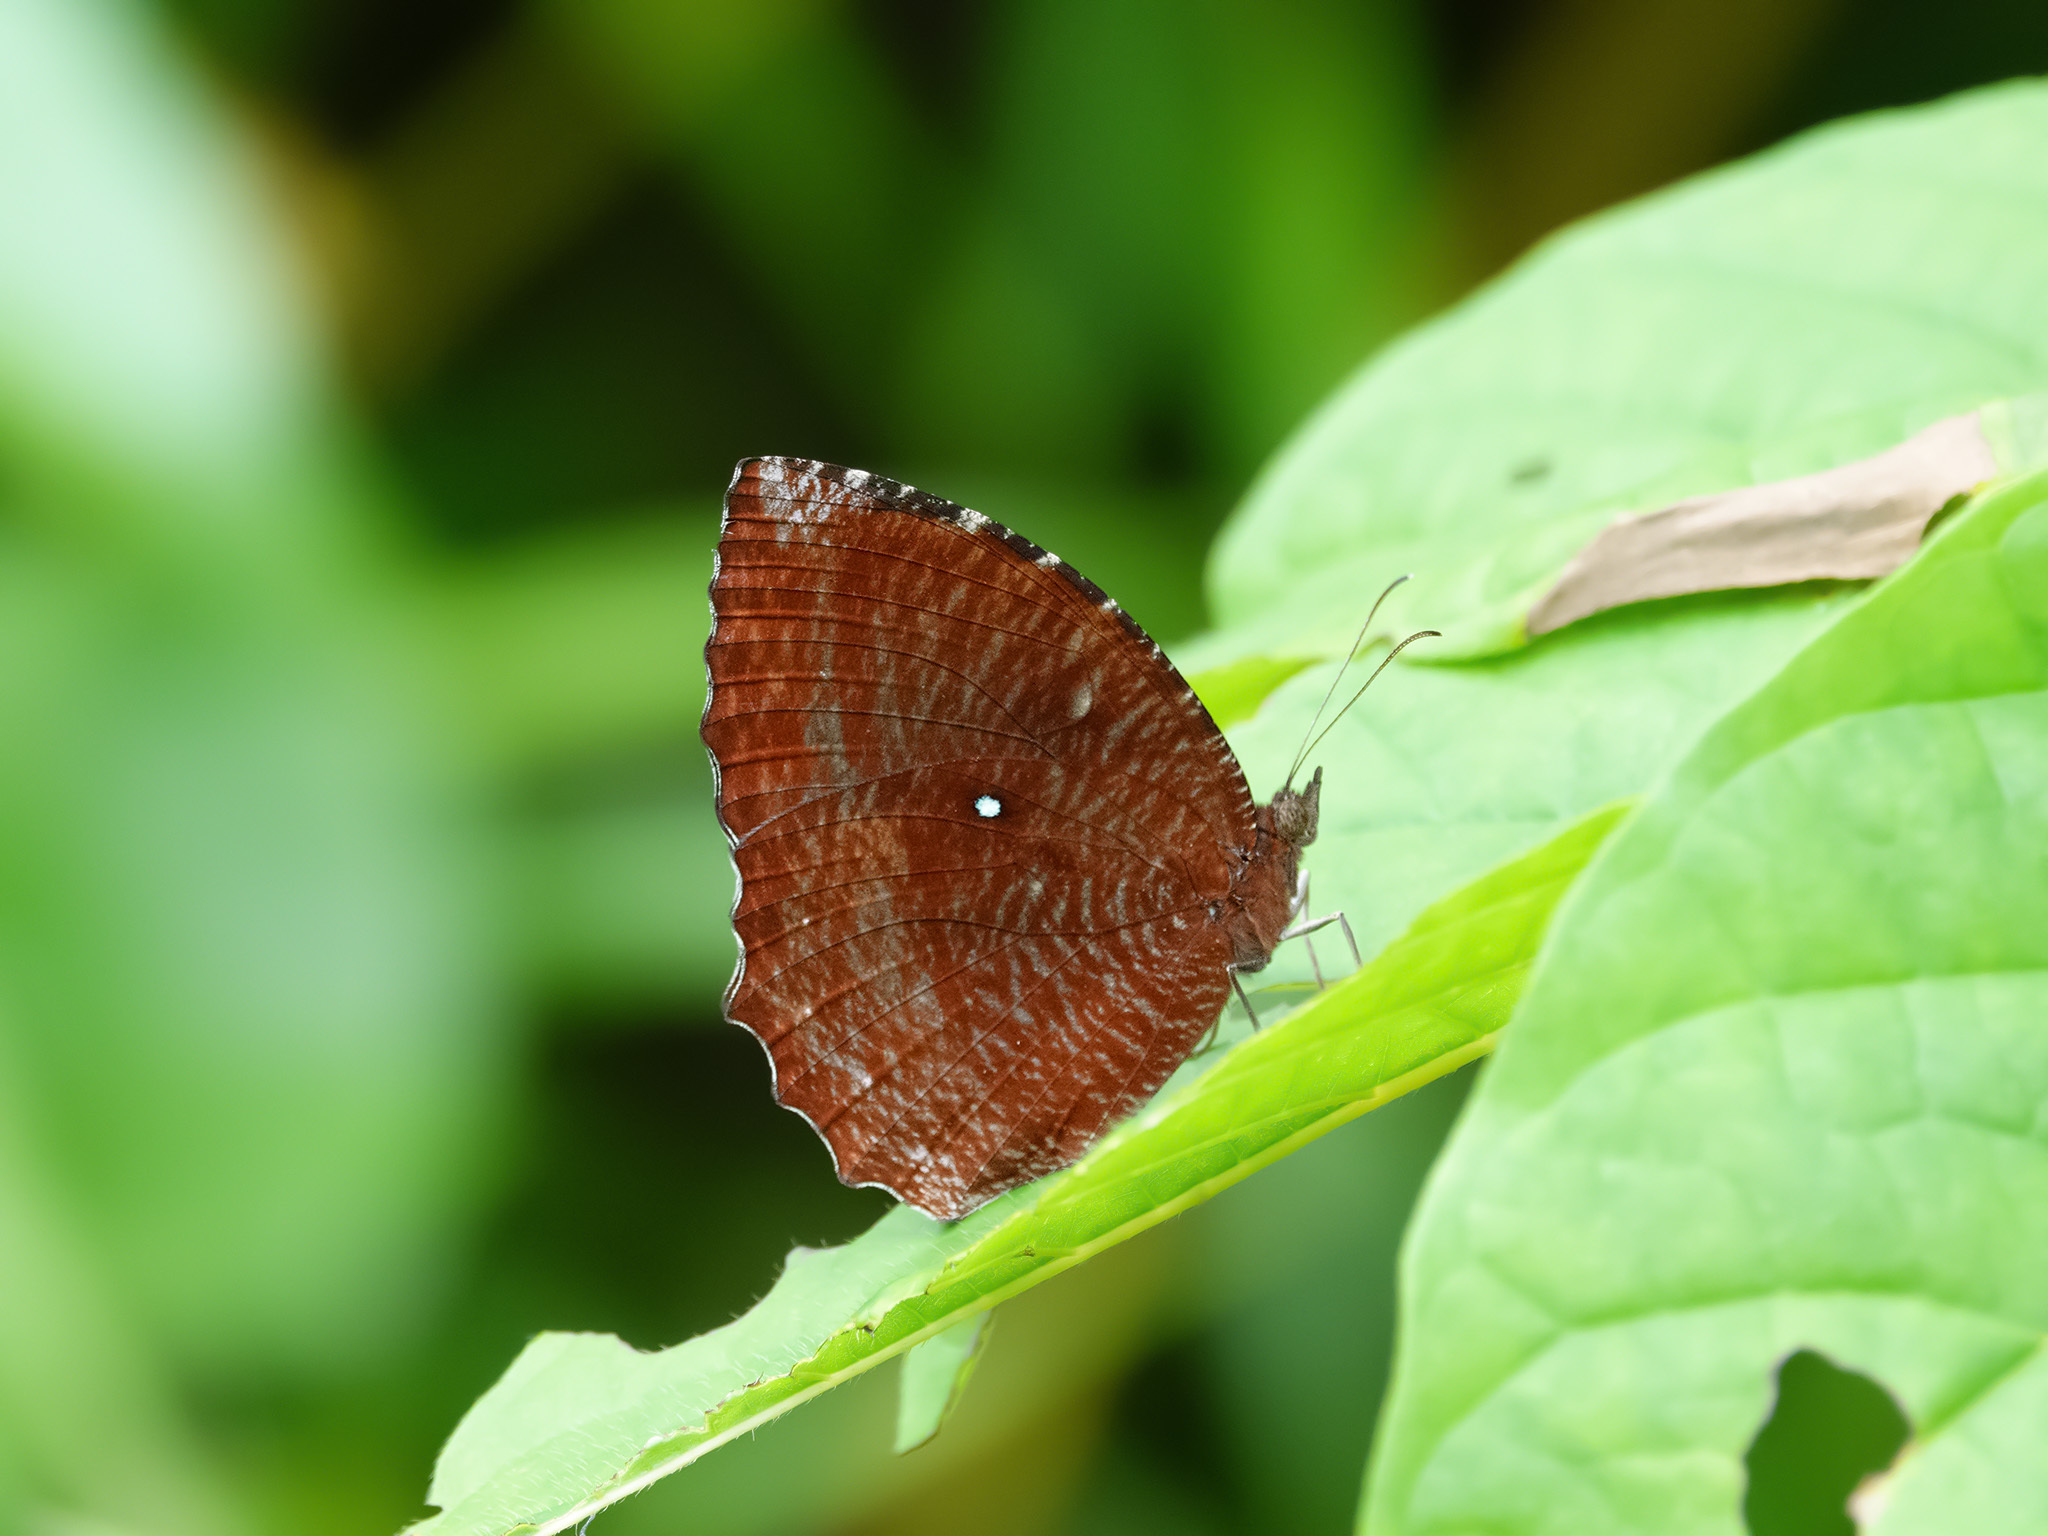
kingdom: Animalia
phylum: Arthropoda
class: Insecta
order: Lepidoptera
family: Nymphalidae
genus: Elymnias
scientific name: Elymnias hypermnestra
